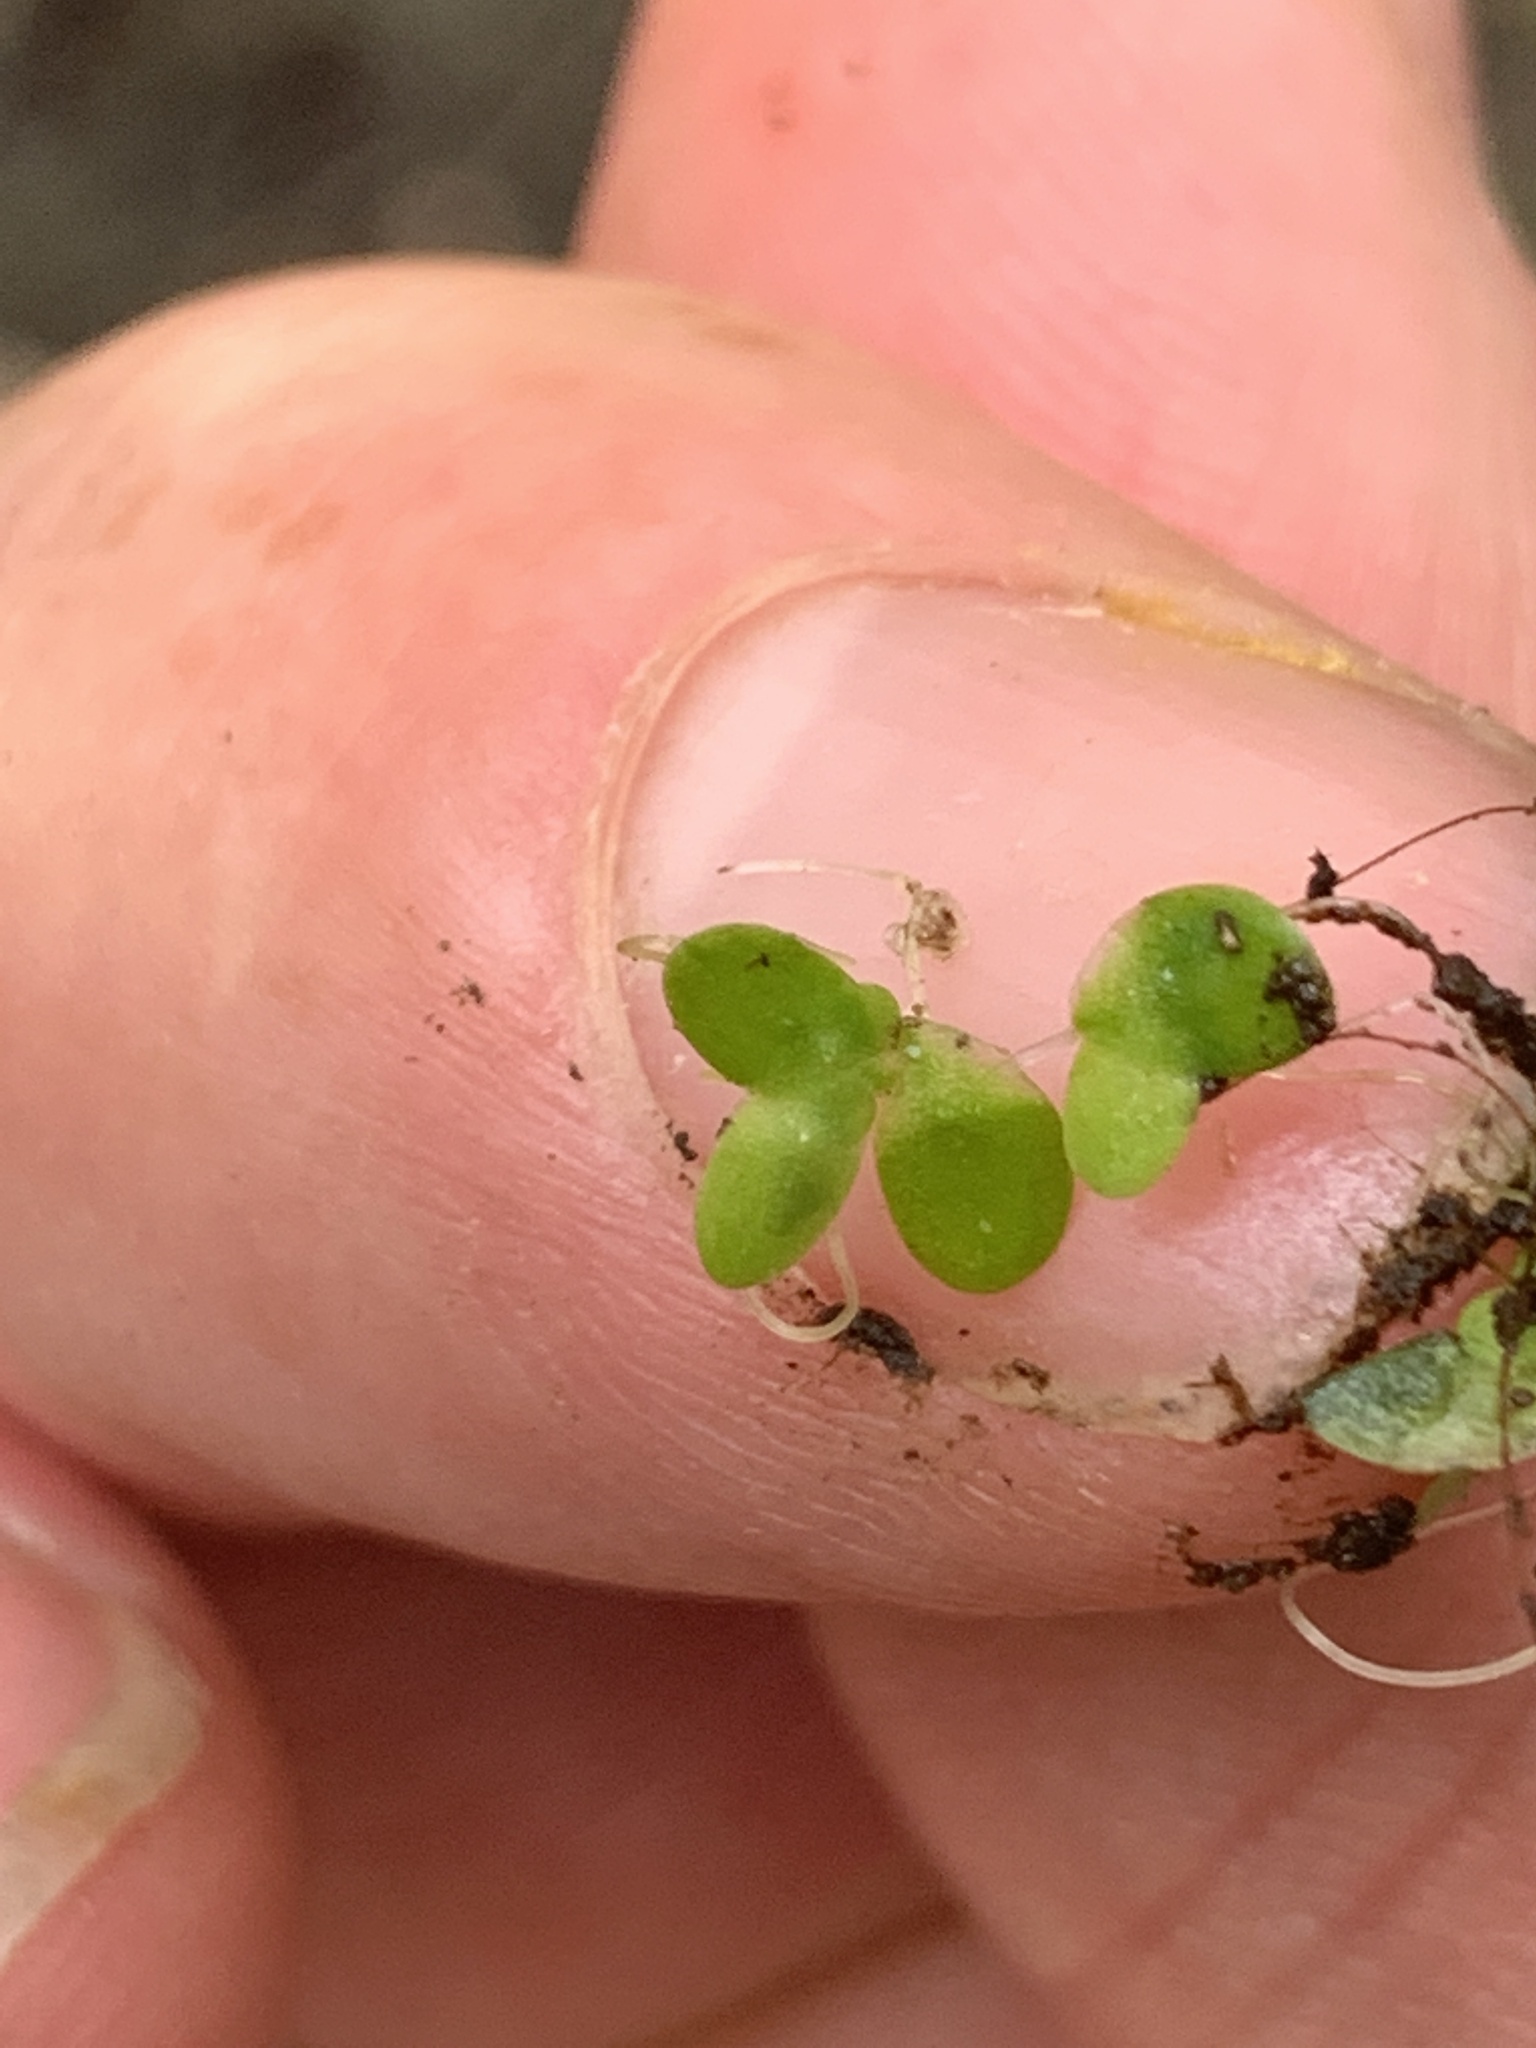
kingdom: Plantae
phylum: Tracheophyta
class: Liliopsida
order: Alismatales
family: Araceae
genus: Lemna
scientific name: Lemna minor
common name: Common duckweed
